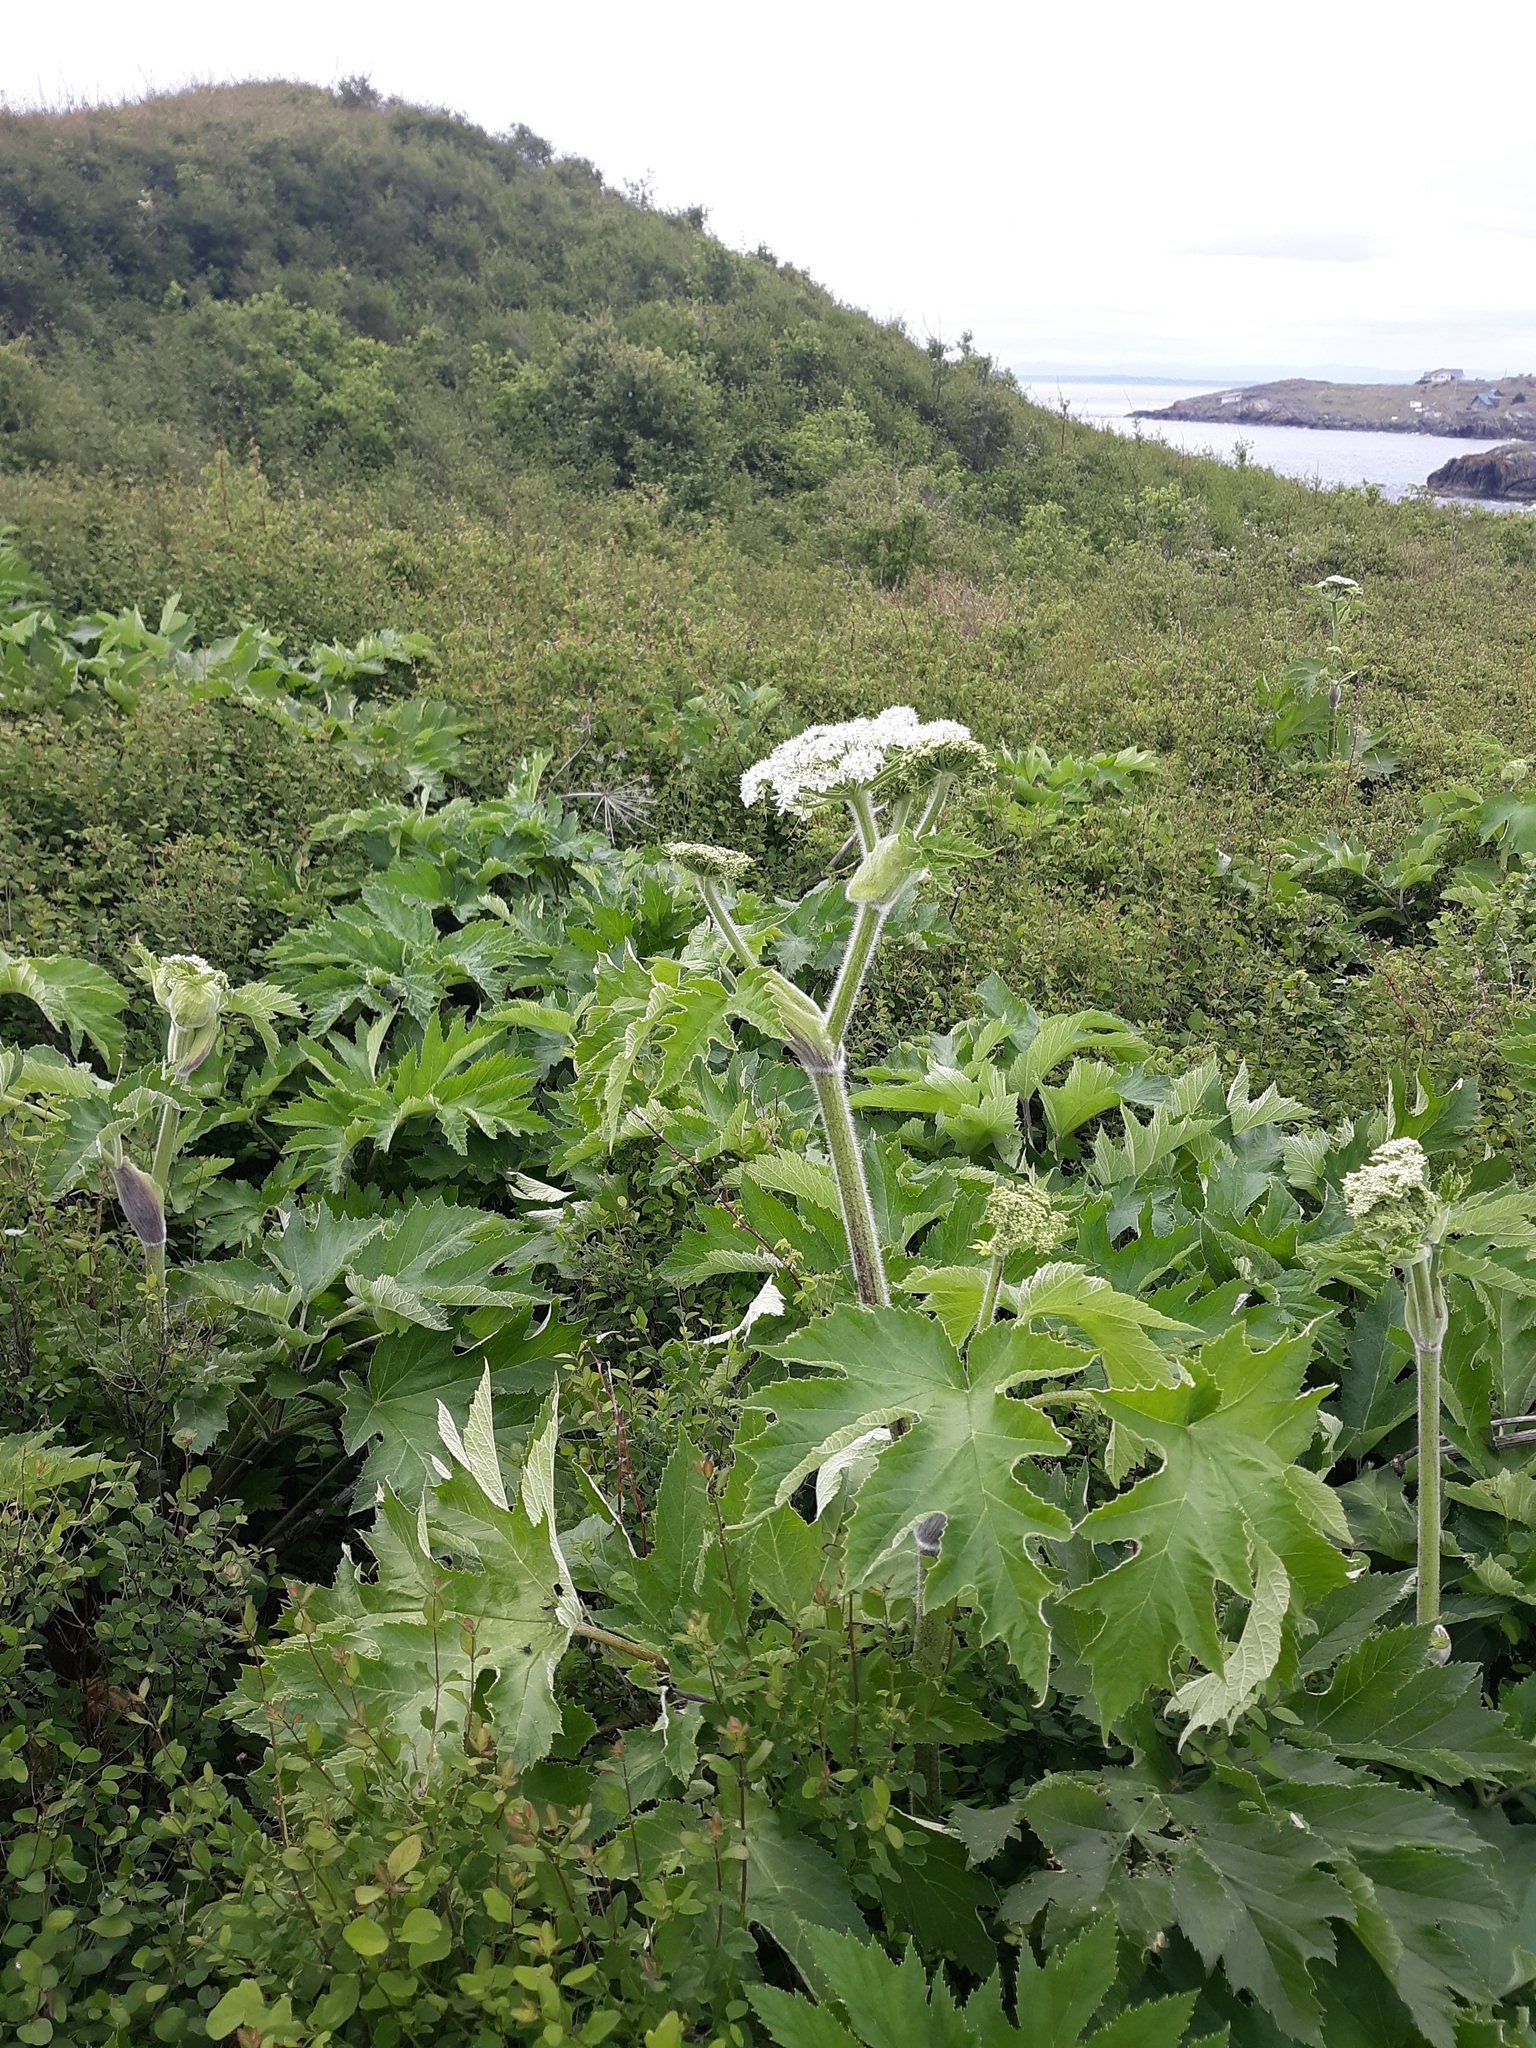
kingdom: Plantae
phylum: Tracheophyta
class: Magnoliopsida
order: Apiales
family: Apiaceae
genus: Heracleum
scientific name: Heracleum maximum
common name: American cow parsnip
